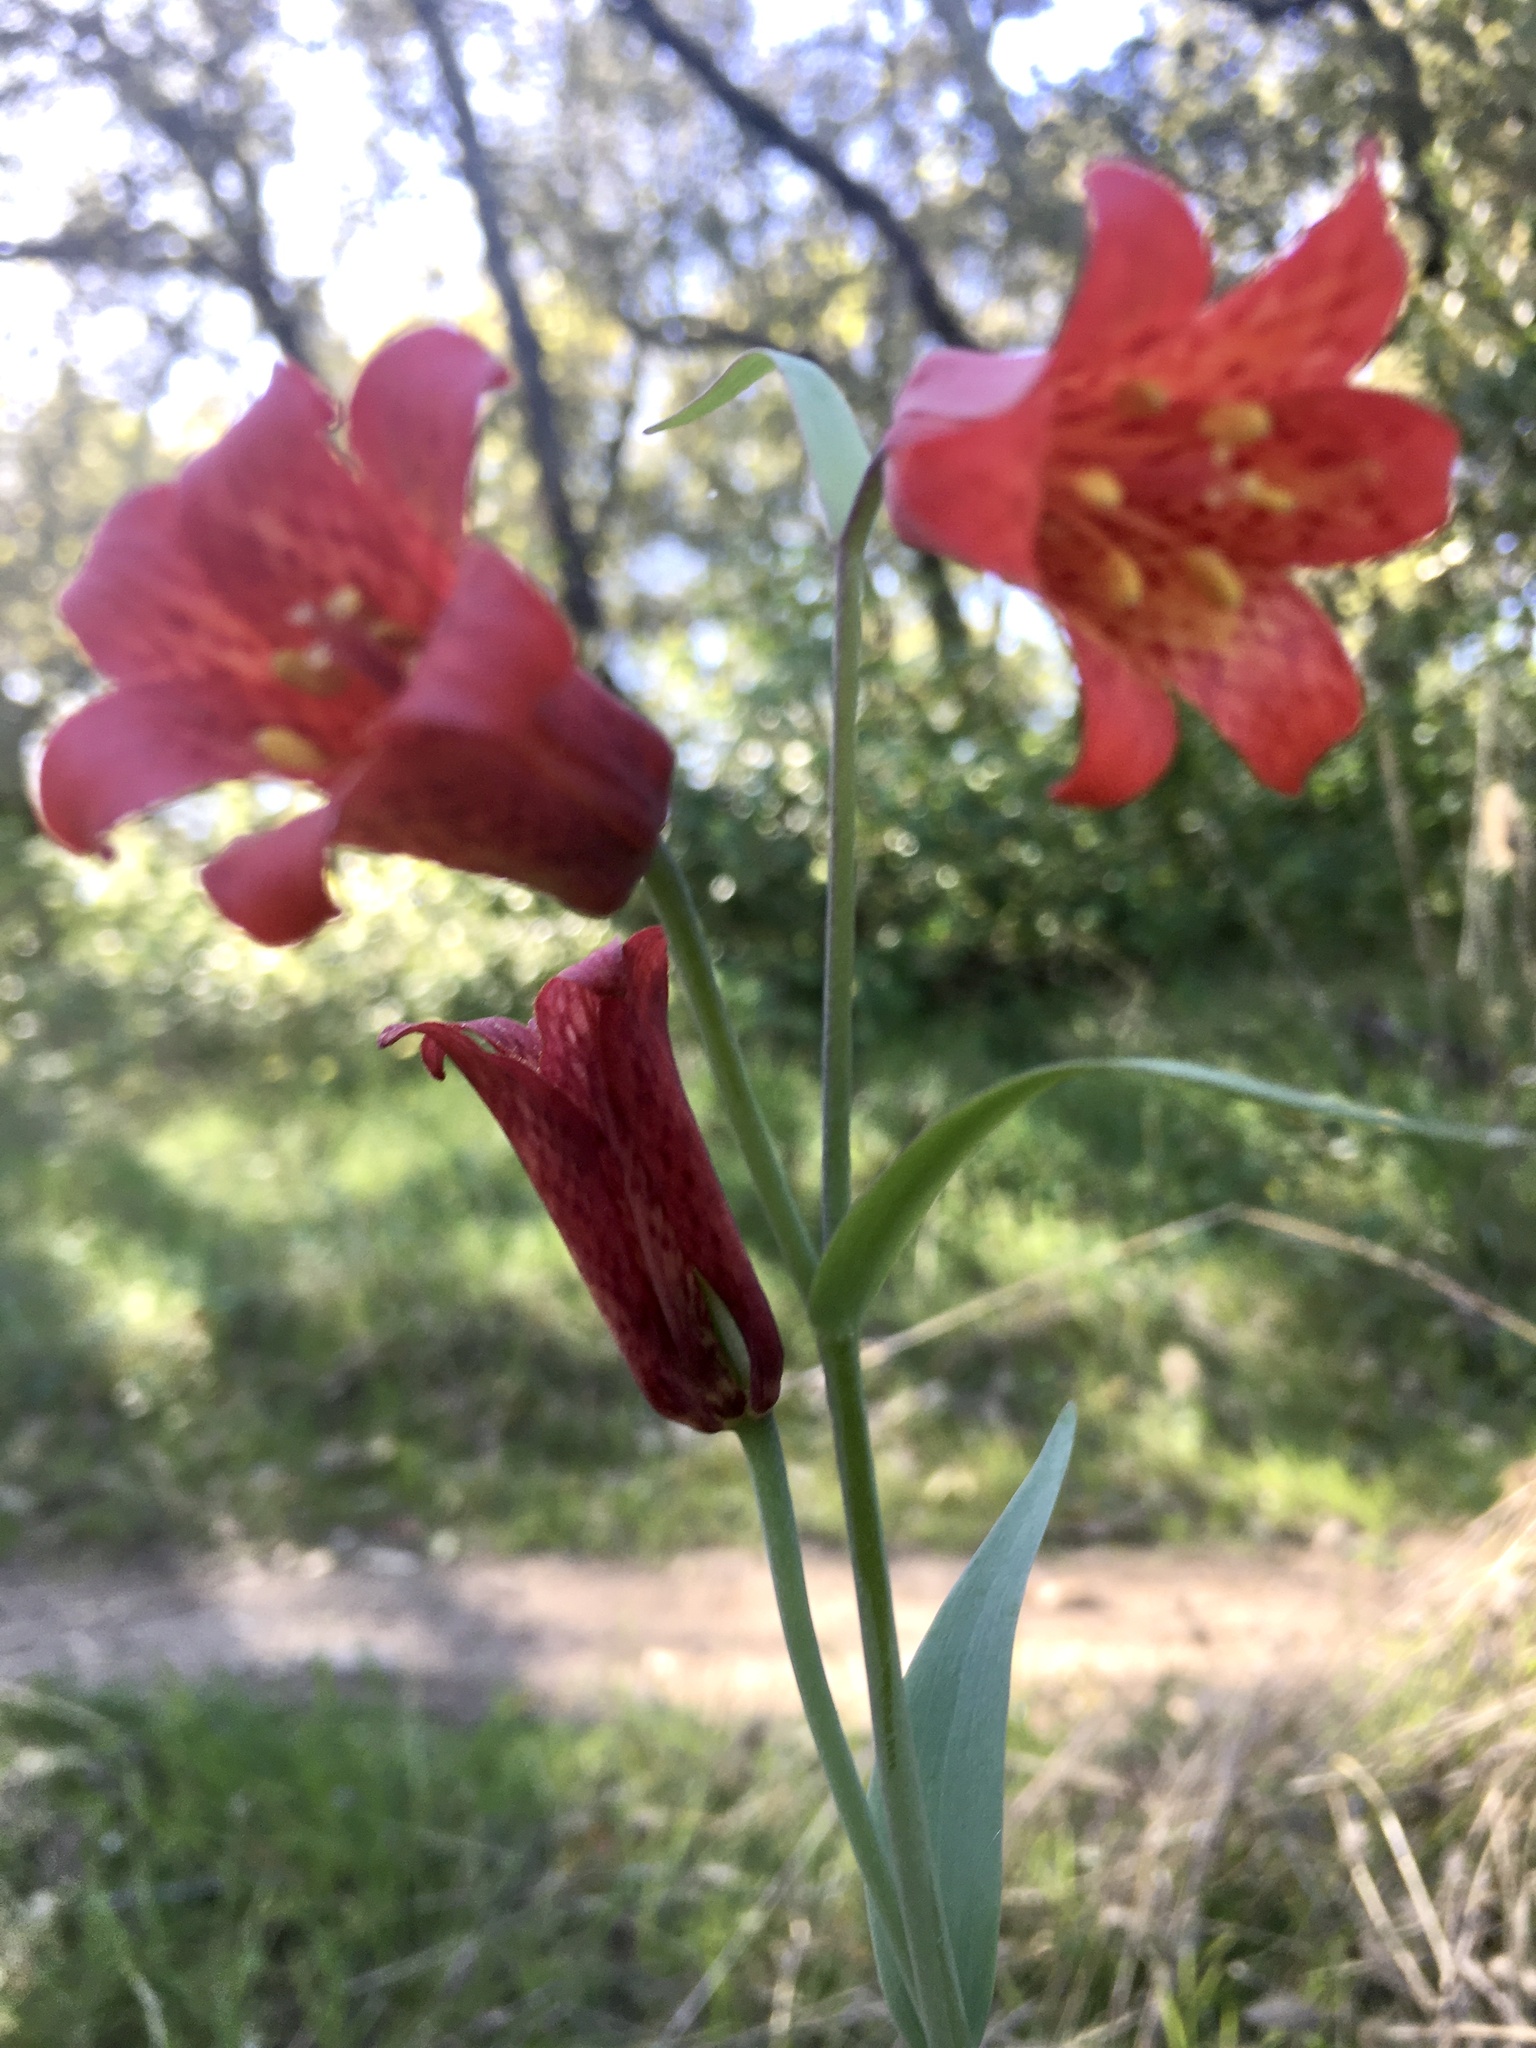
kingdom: Plantae
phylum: Tracheophyta
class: Liliopsida
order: Liliales
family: Liliaceae
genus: Fritillaria
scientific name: Fritillaria recurva
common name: Scarlet fritillary
